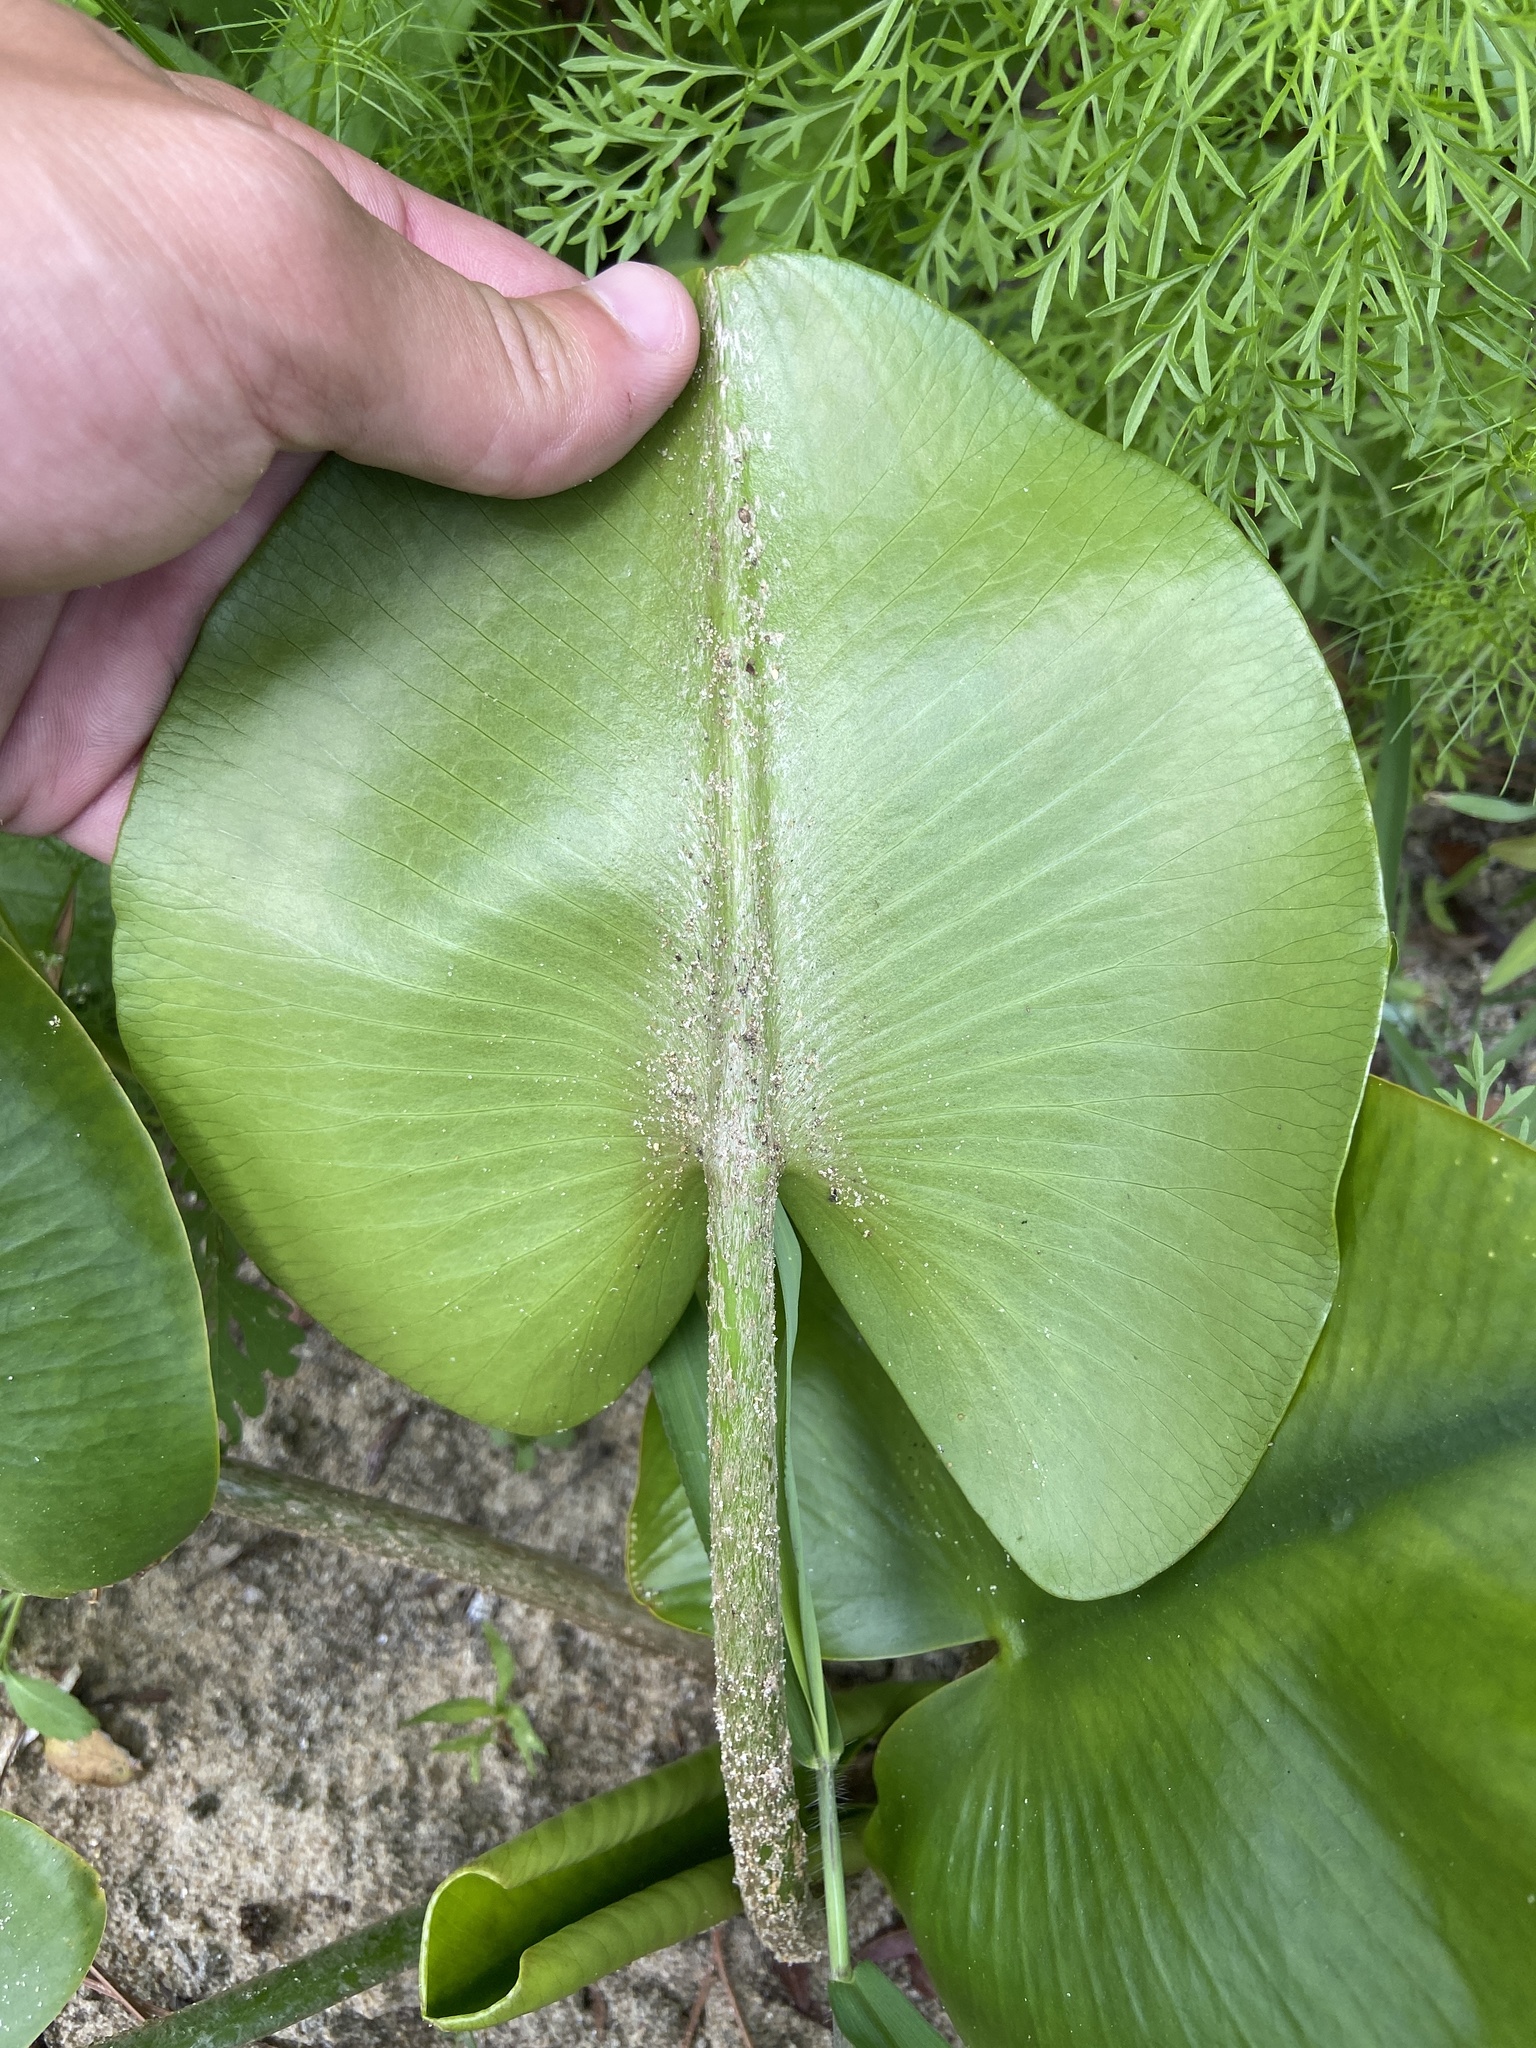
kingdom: Plantae
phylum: Tracheophyta
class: Magnoliopsida
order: Nymphaeales
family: Nymphaeaceae
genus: Nuphar
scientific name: Nuphar advena
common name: Spatter-dock
